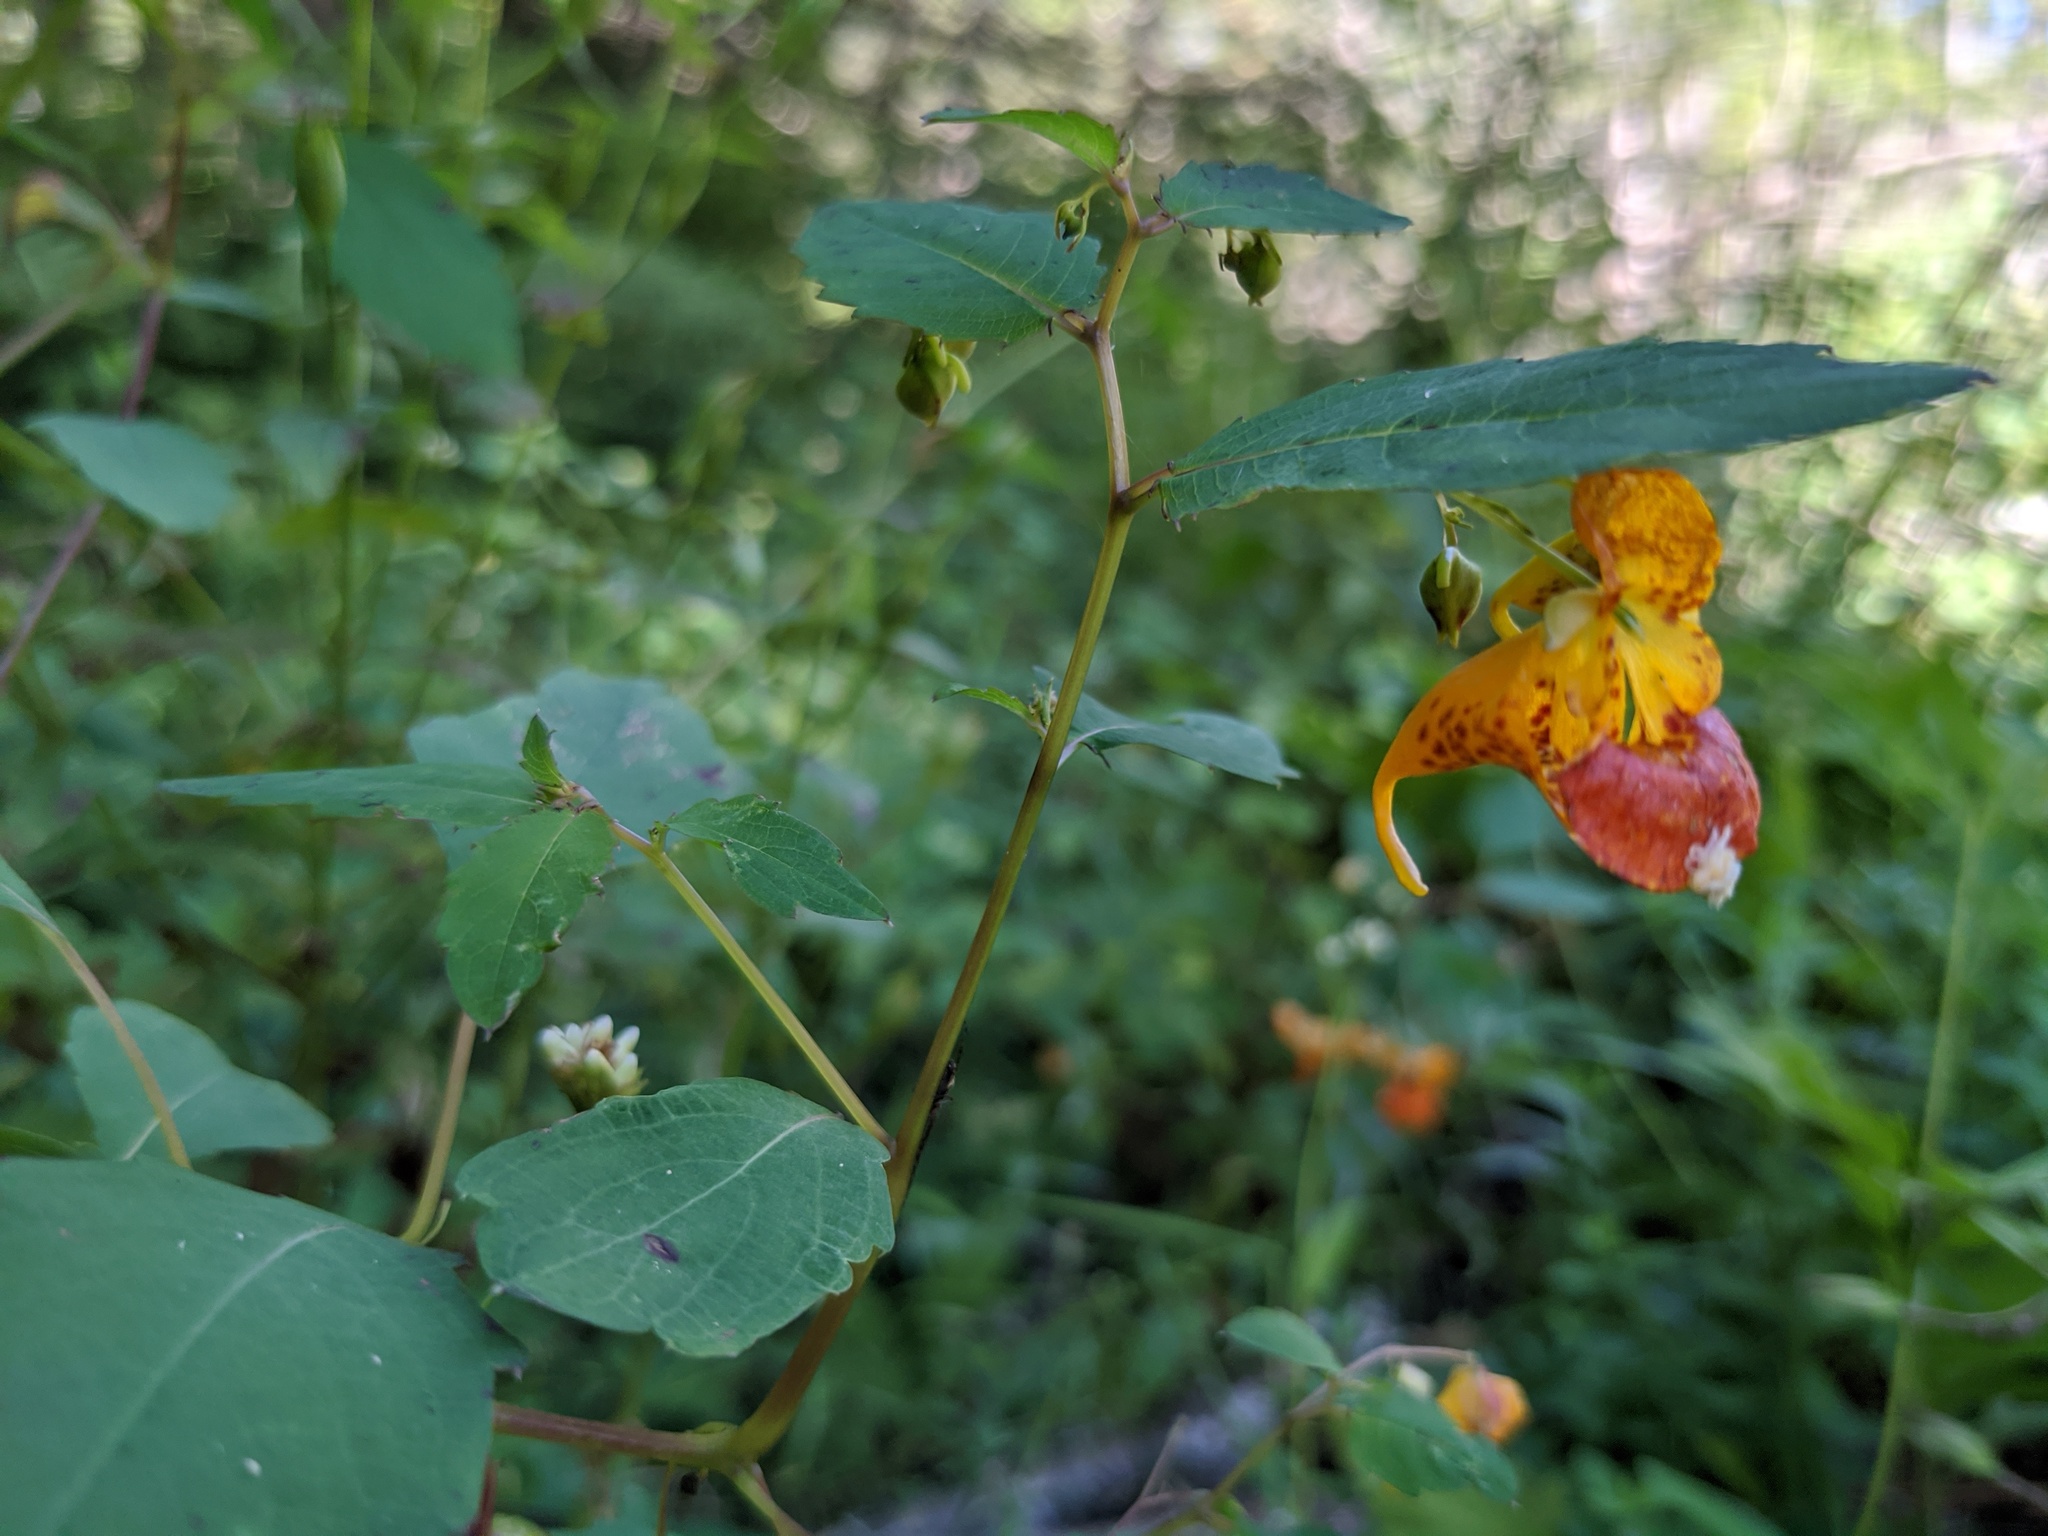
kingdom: Plantae
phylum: Tracheophyta
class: Magnoliopsida
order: Ericales
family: Balsaminaceae
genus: Impatiens
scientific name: Impatiens capensis
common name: Orange balsam
